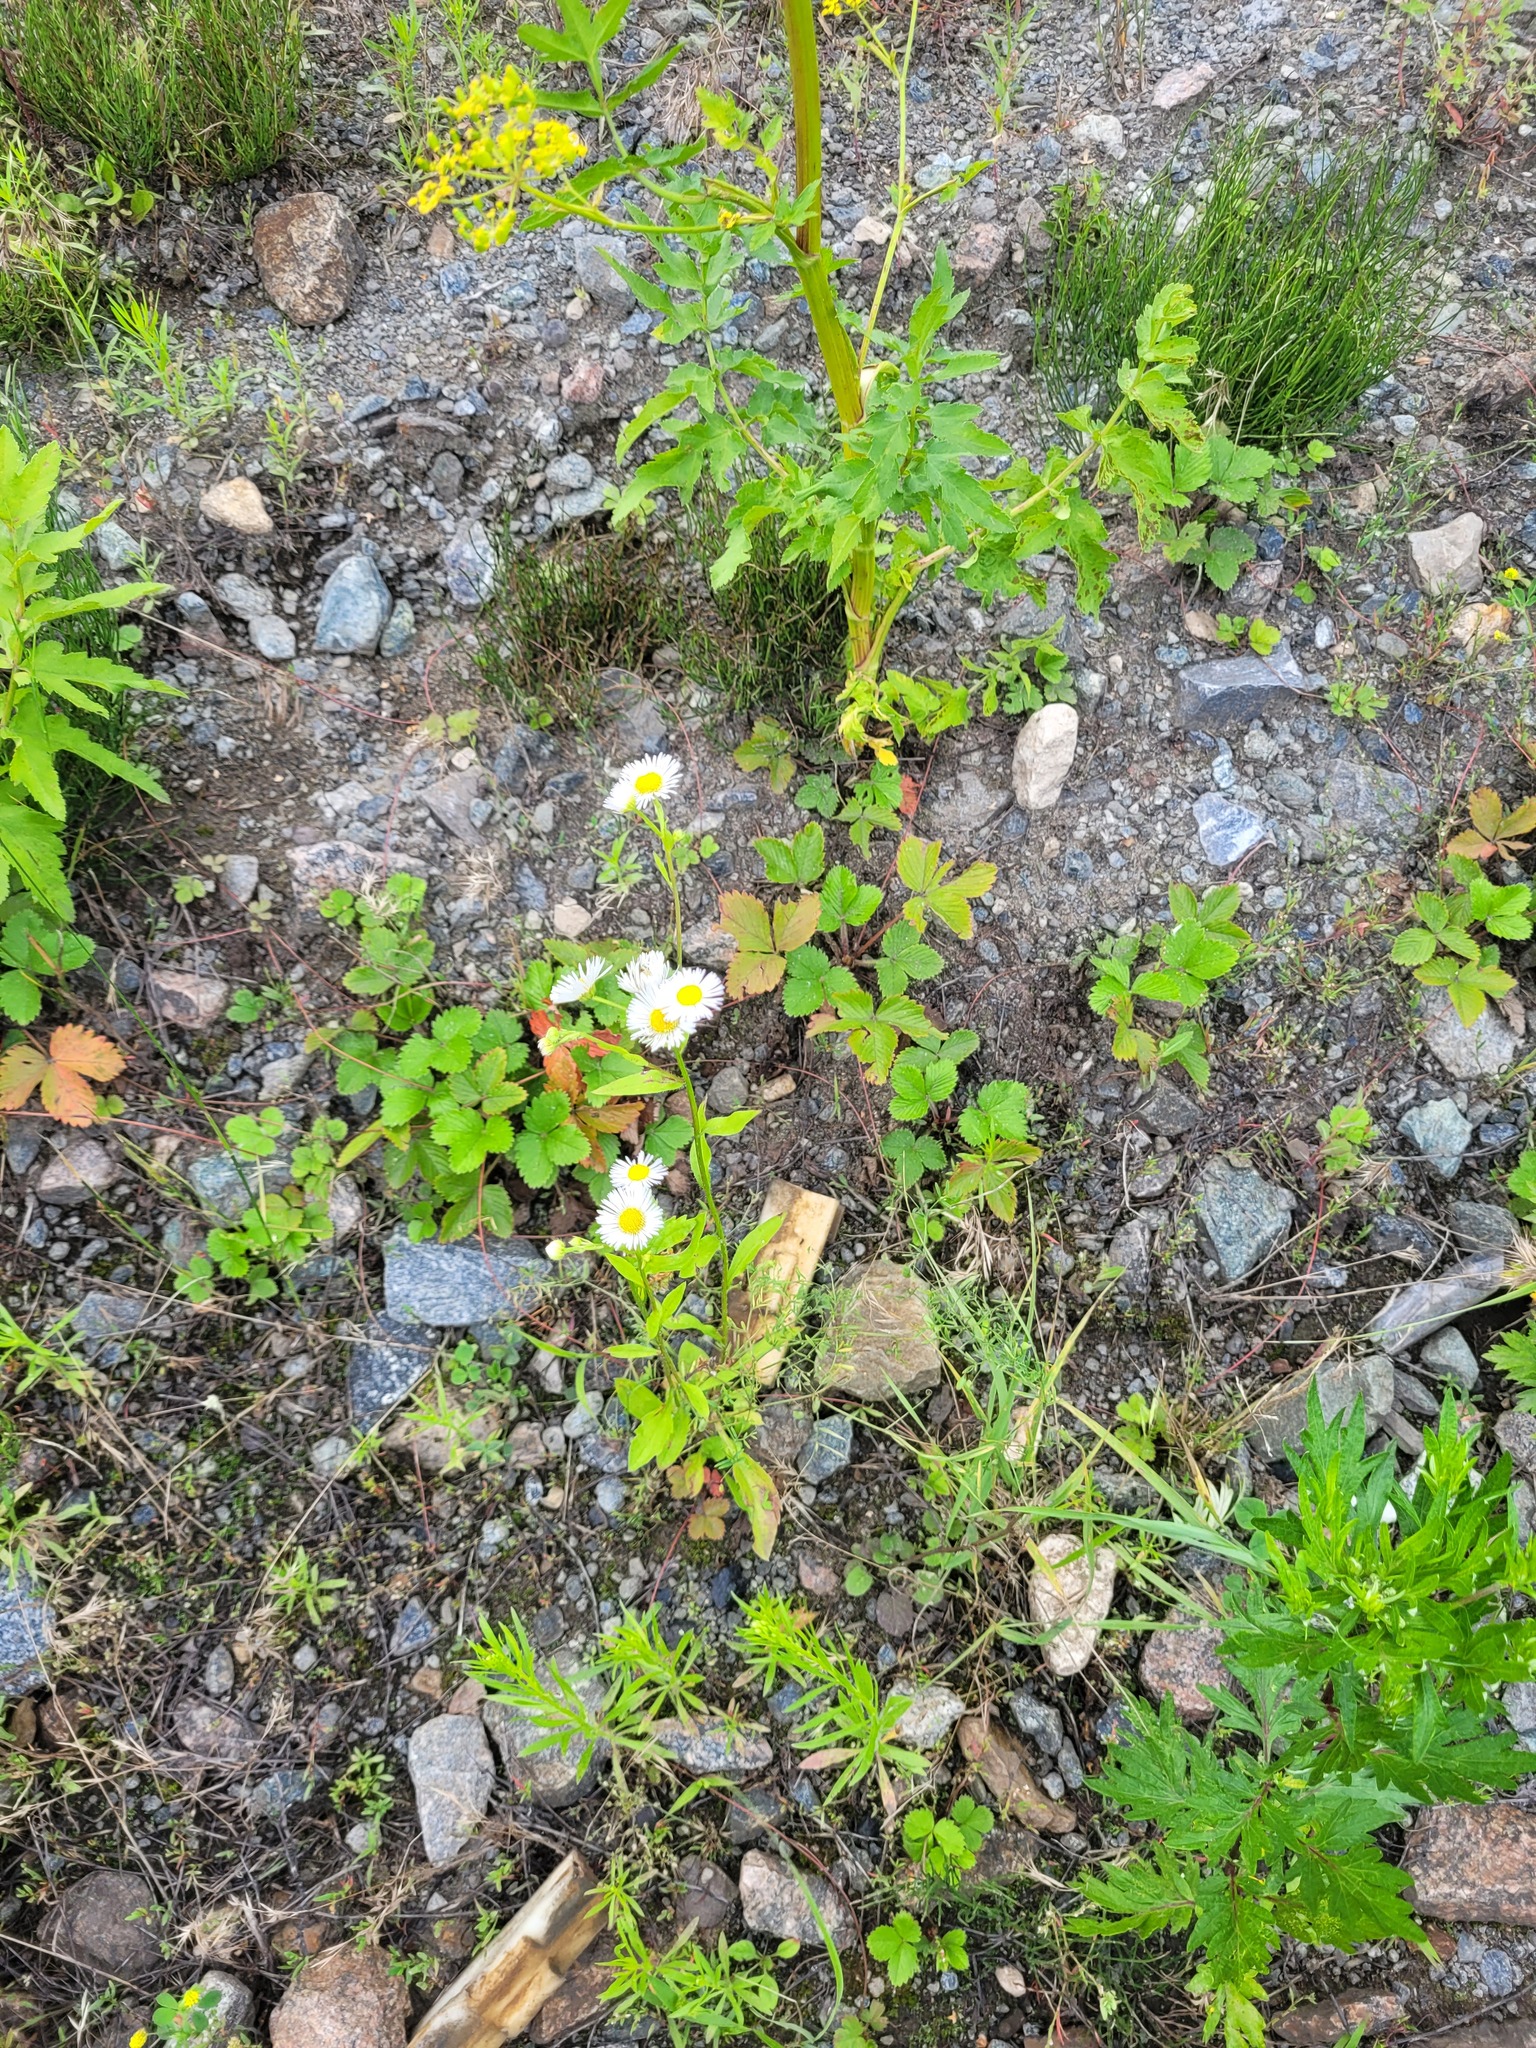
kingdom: Plantae
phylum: Tracheophyta
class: Magnoliopsida
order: Asterales
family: Asteraceae
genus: Erigeron
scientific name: Erigeron annuus
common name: Tall fleabane
